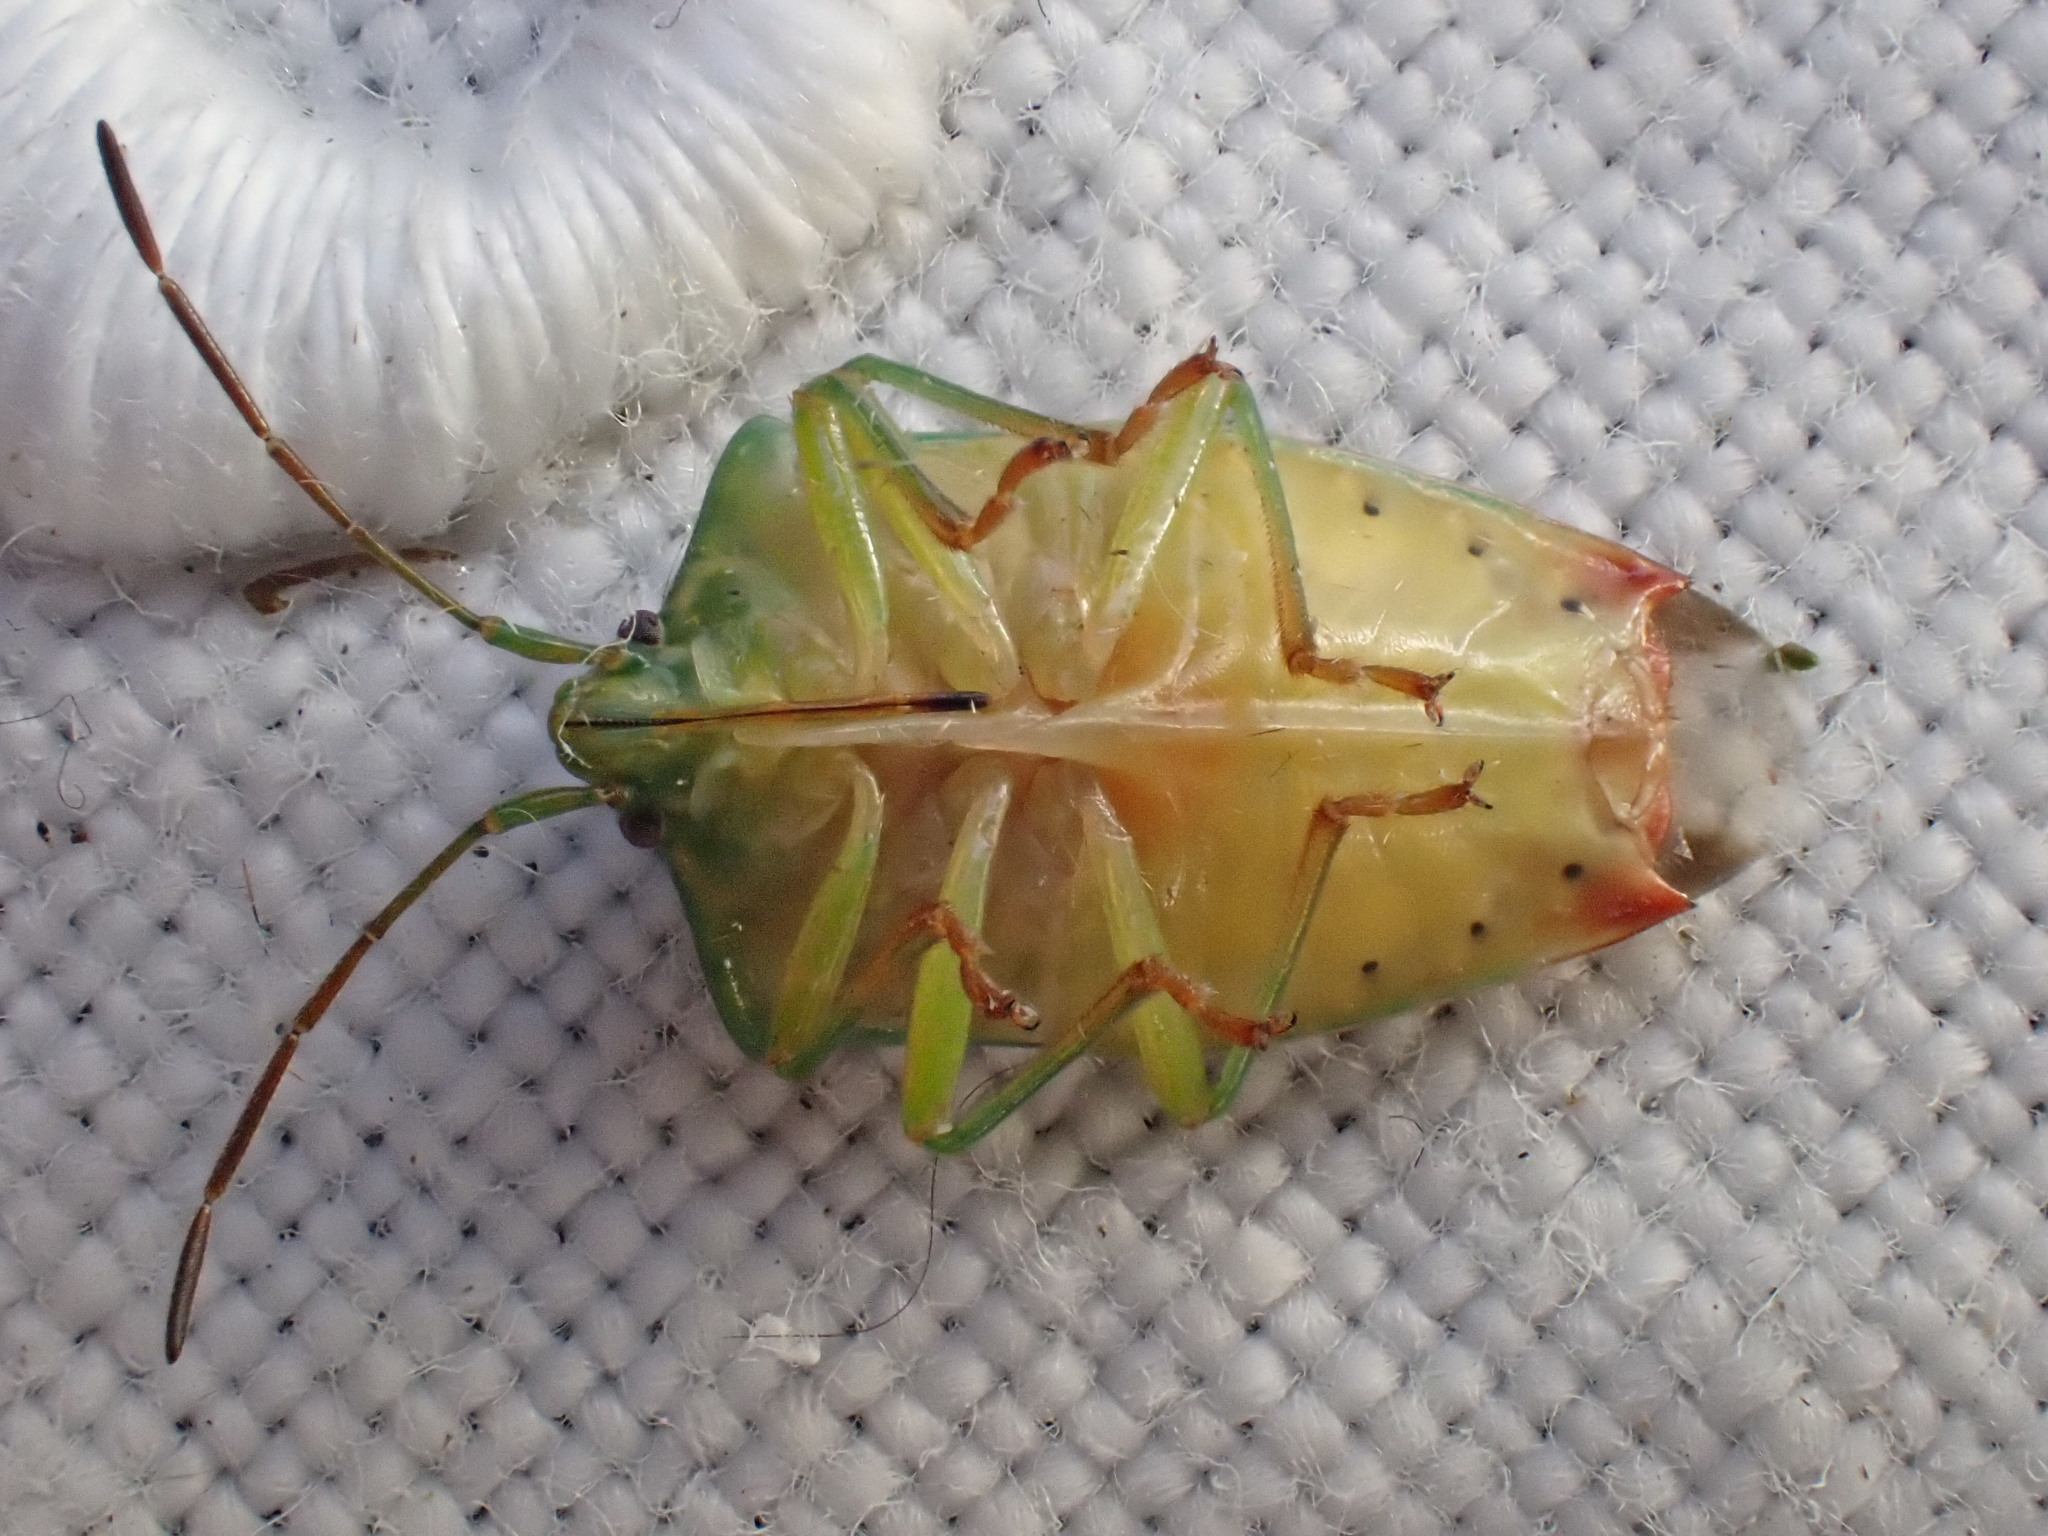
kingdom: Animalia
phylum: Arthropoda
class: Insecta
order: Hemiptera
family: Acanthosomatidae
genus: Elasmostethus
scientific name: Elasmostethus interstinctus
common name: Birch shieldbug
